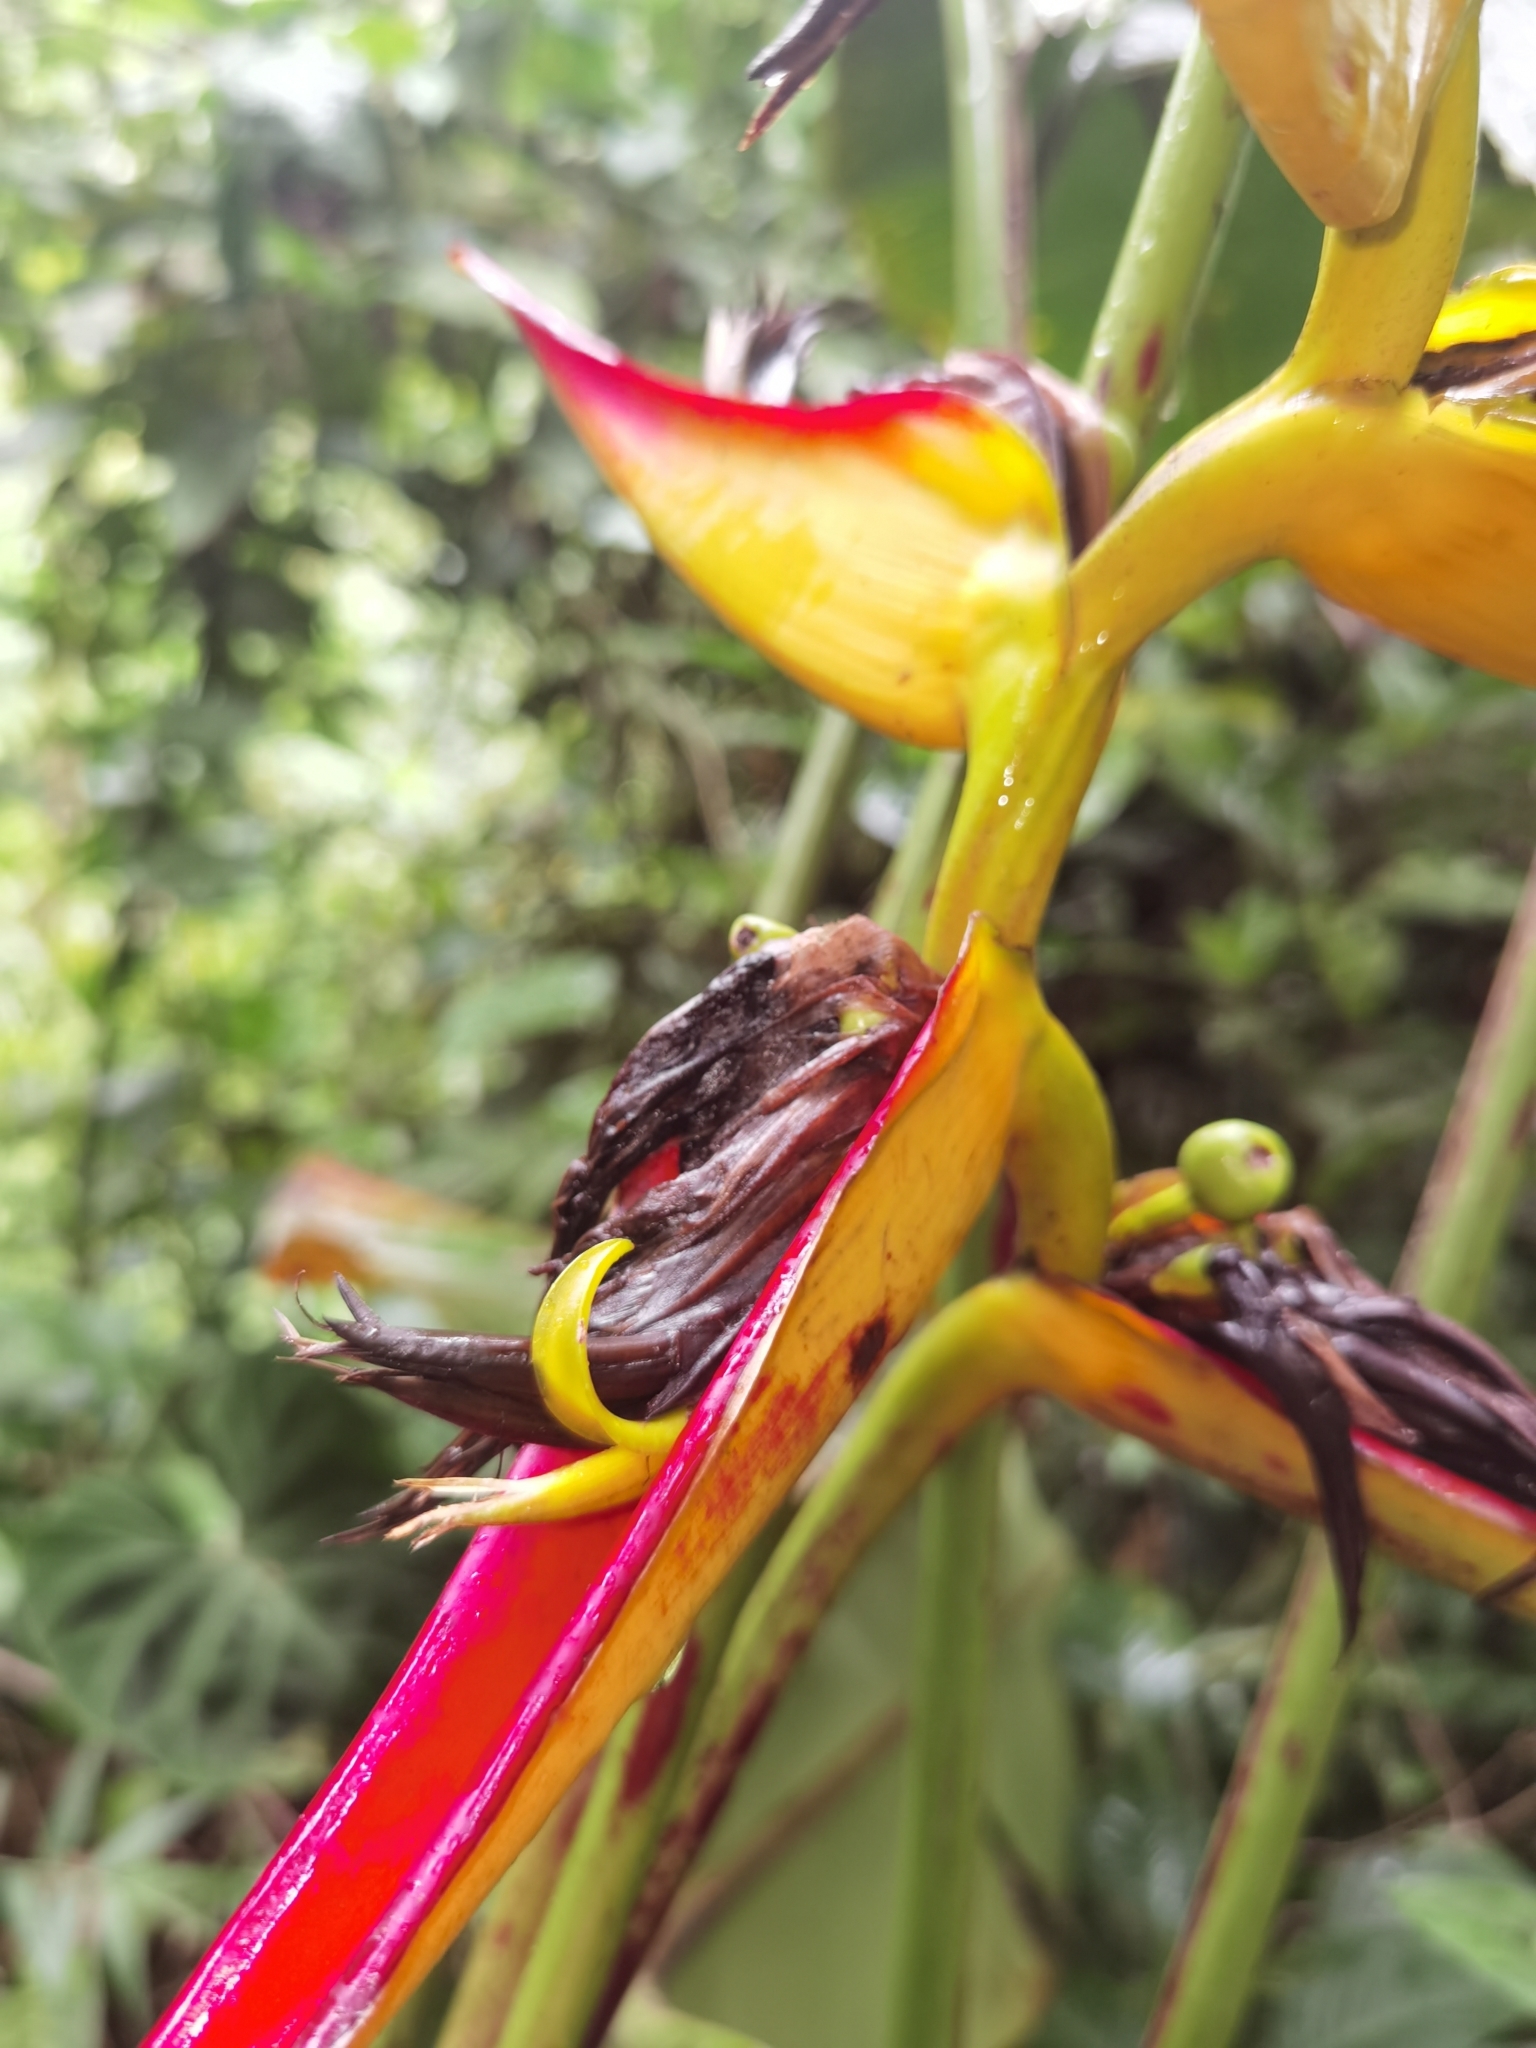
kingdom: Plantae
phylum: Tracheophyta
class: Liliopsida
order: Zingiberales
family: Heliconiaceae
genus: Heliconia
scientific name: Heliconia tortuosa
